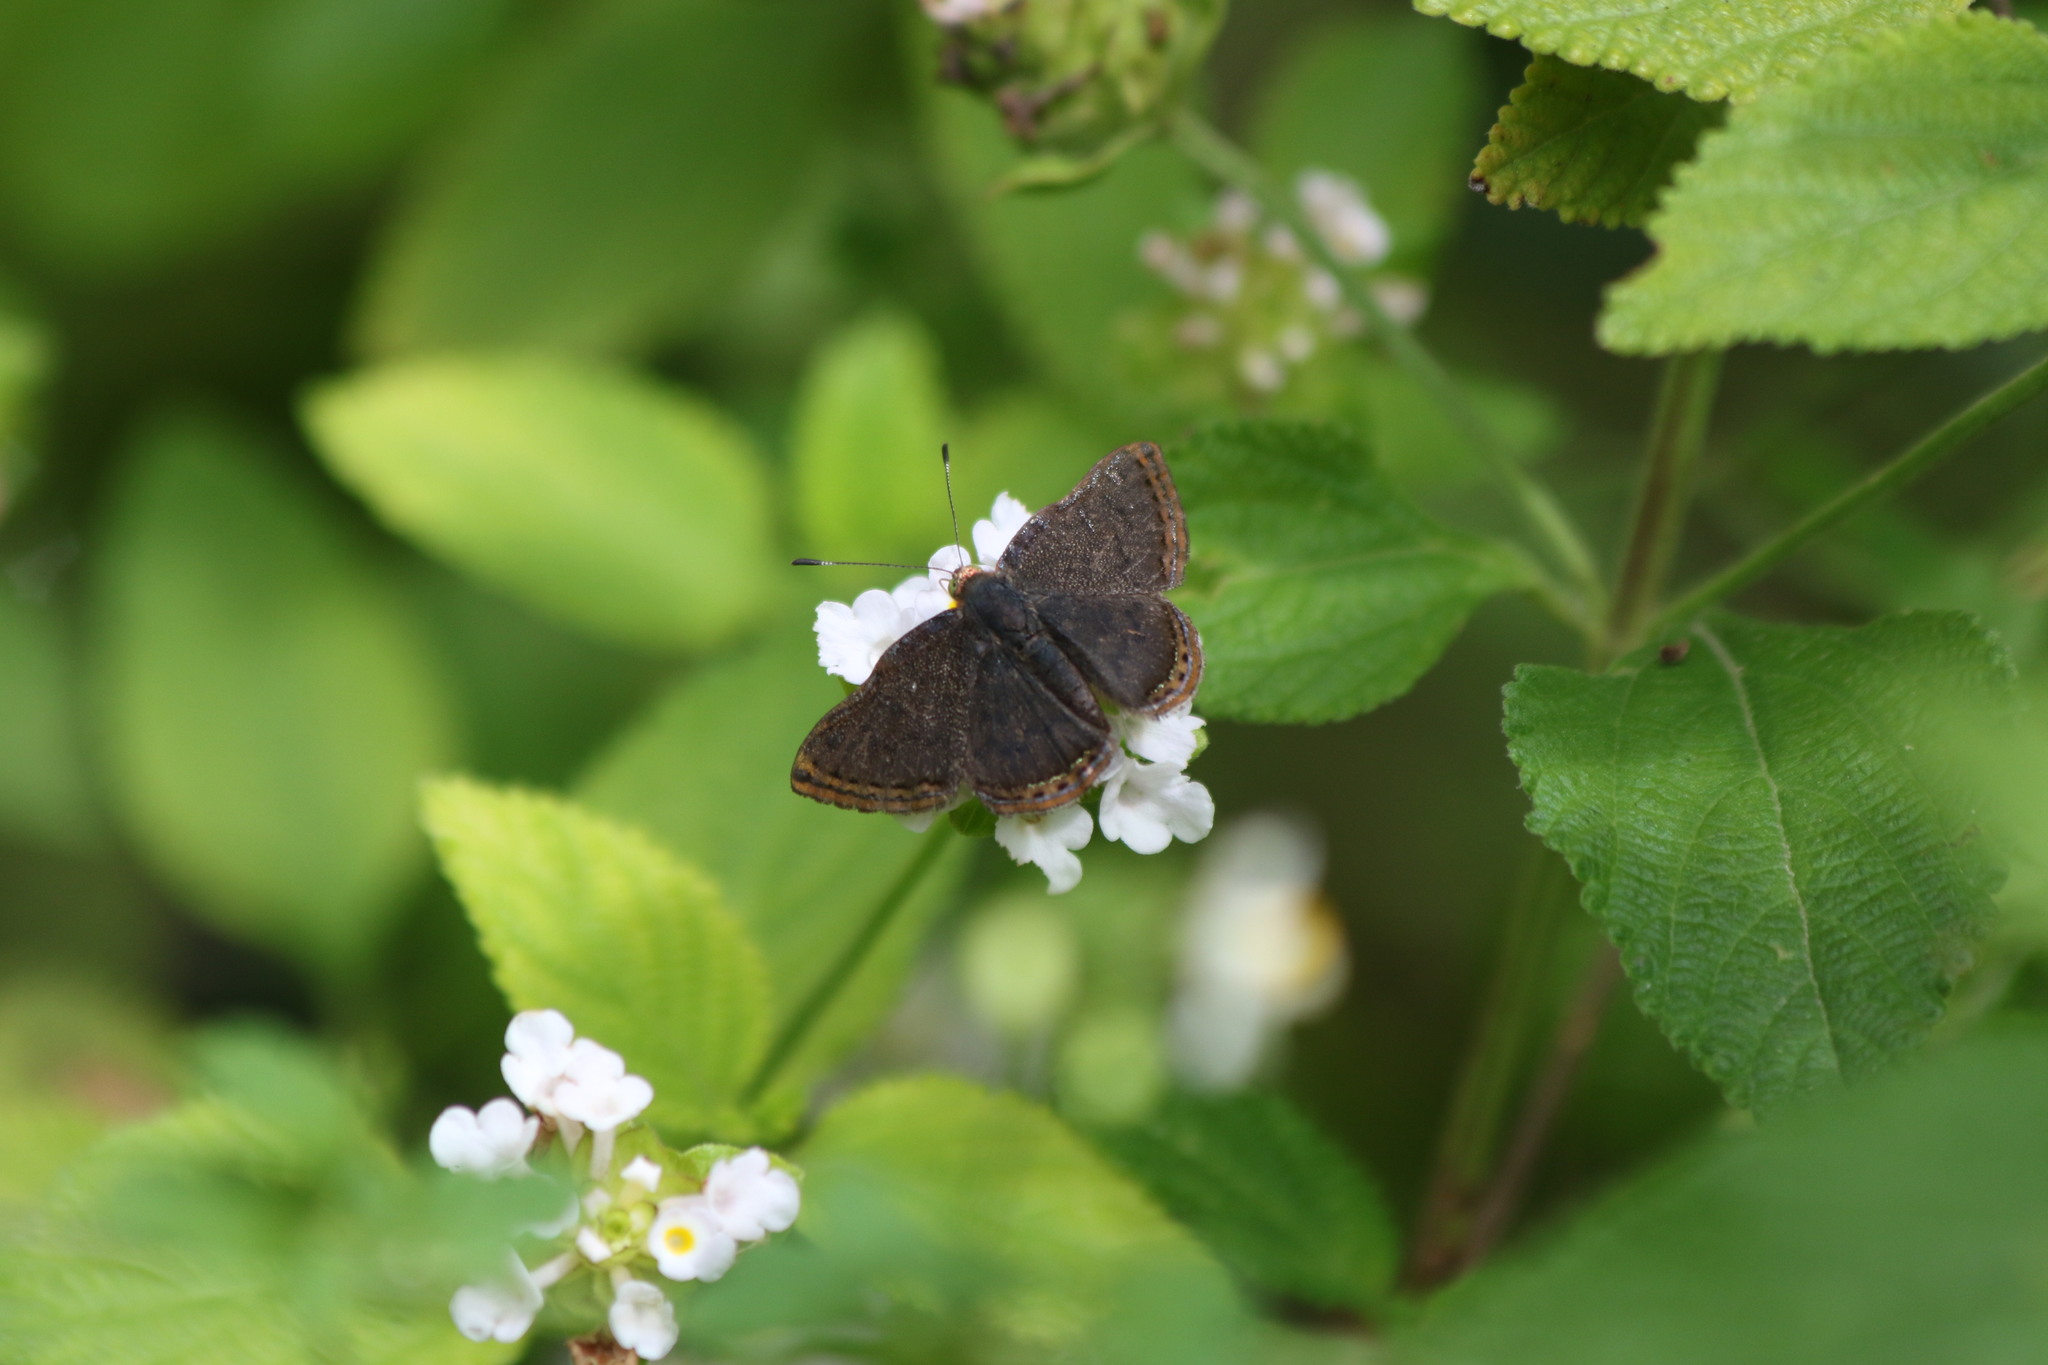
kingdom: Animalia
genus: Caria
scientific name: Caria ino
